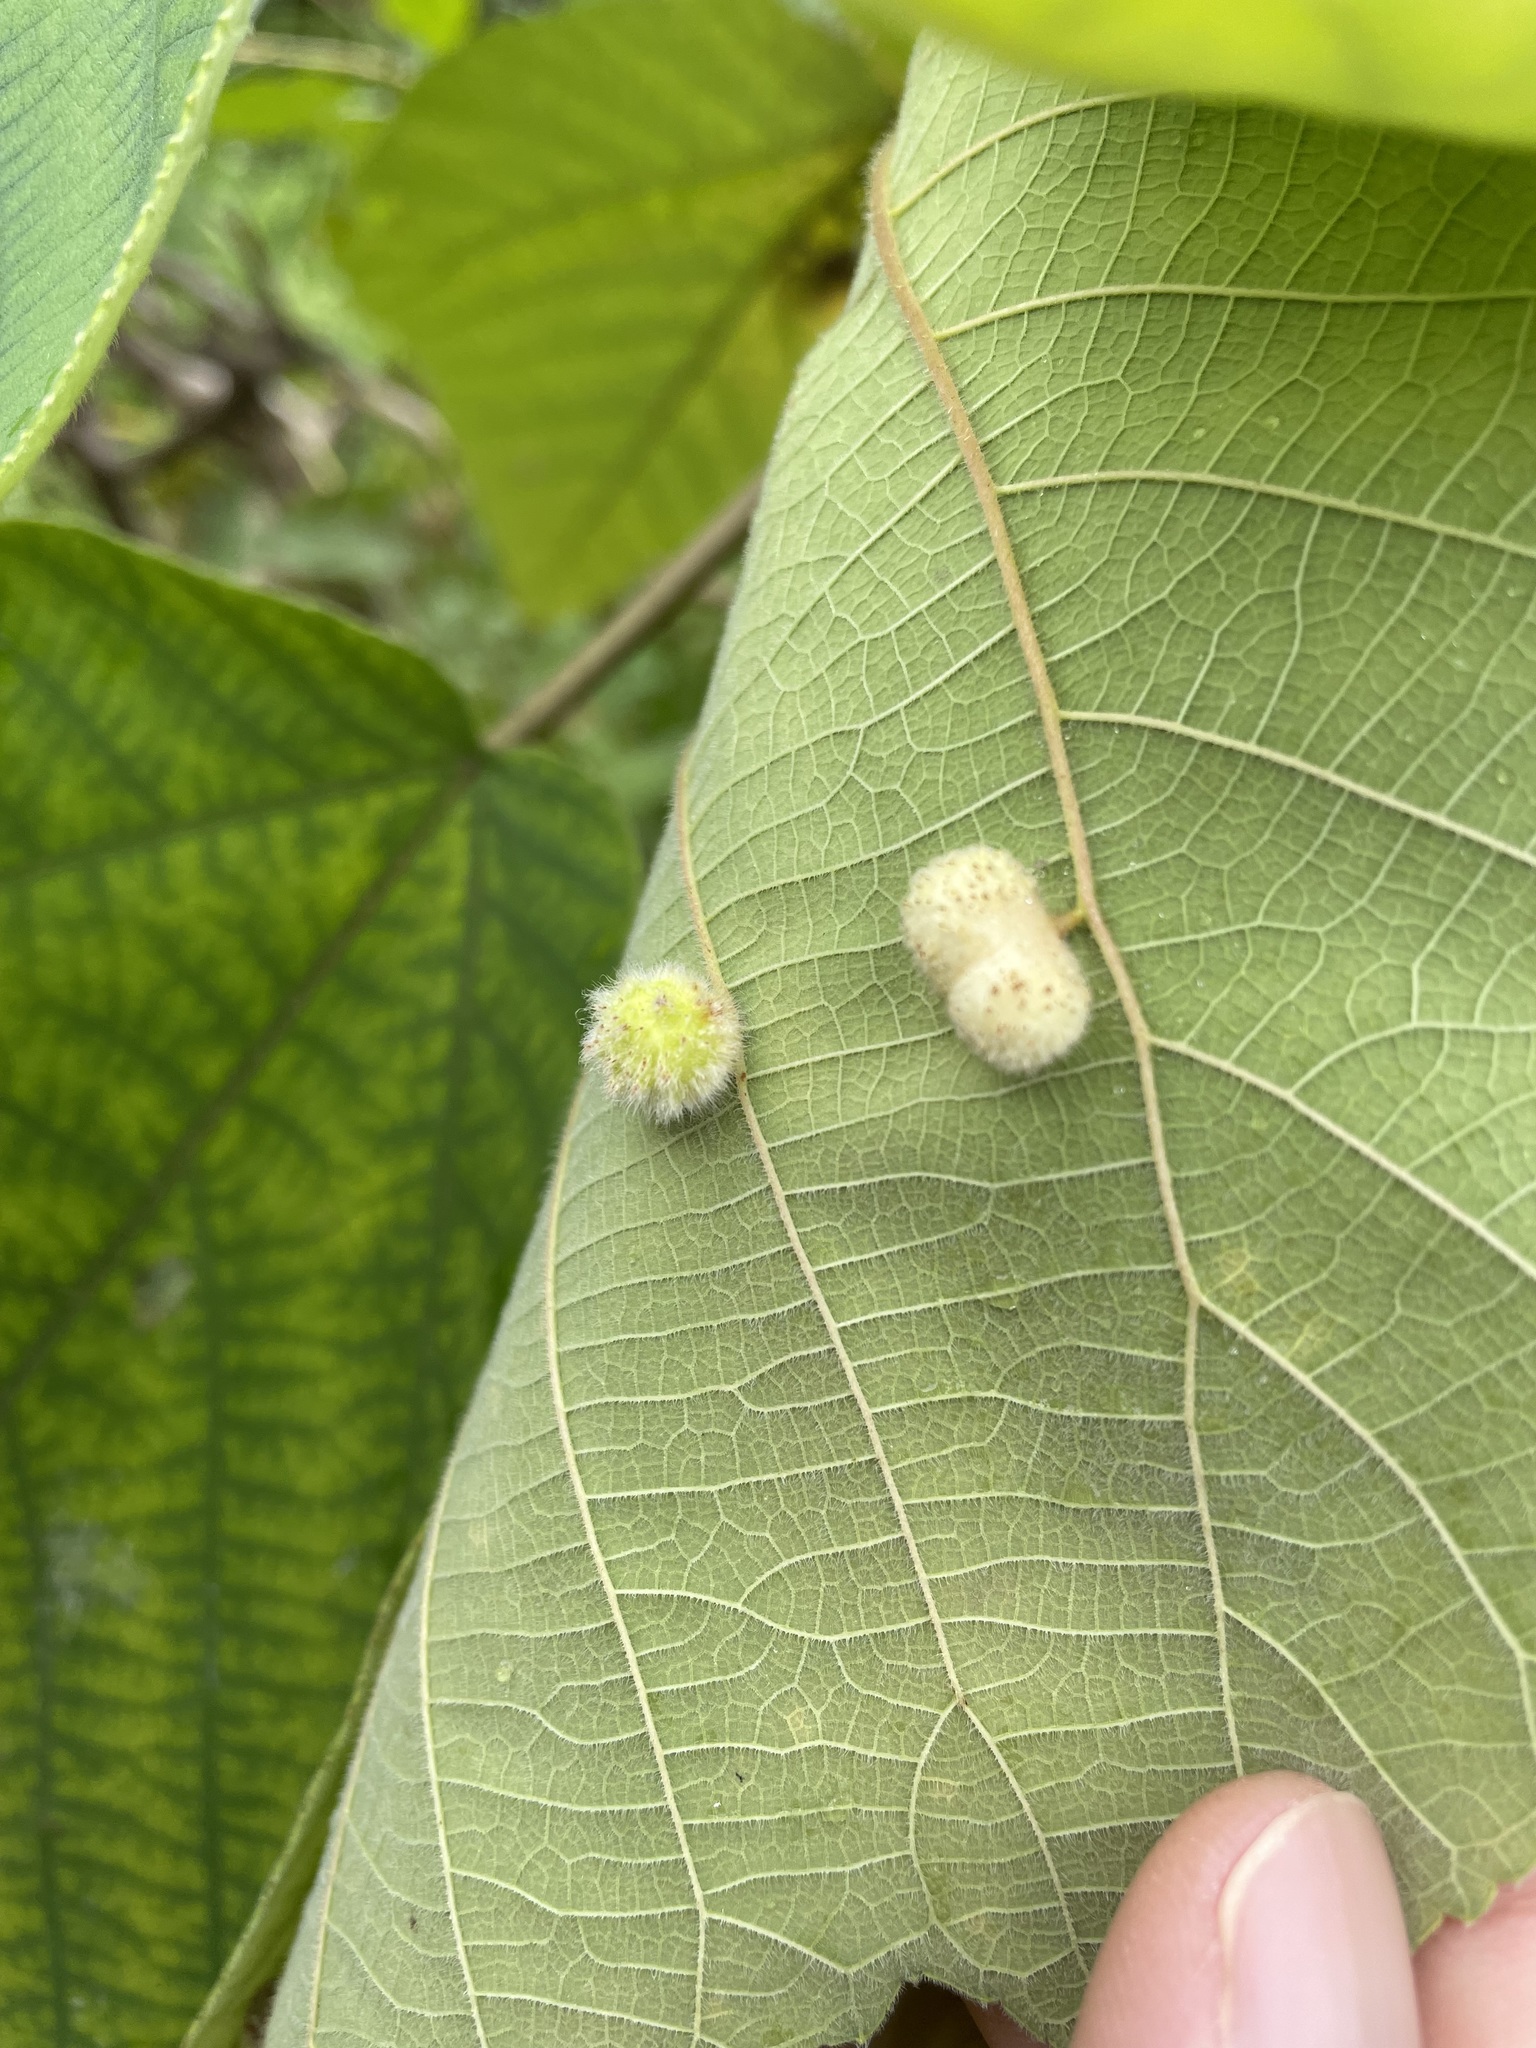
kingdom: Animalia
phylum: Arthropoda
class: Insecta
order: Diptera
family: Cecidomyiidae
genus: Schizomyia
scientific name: Schizomyia broussonetiae
